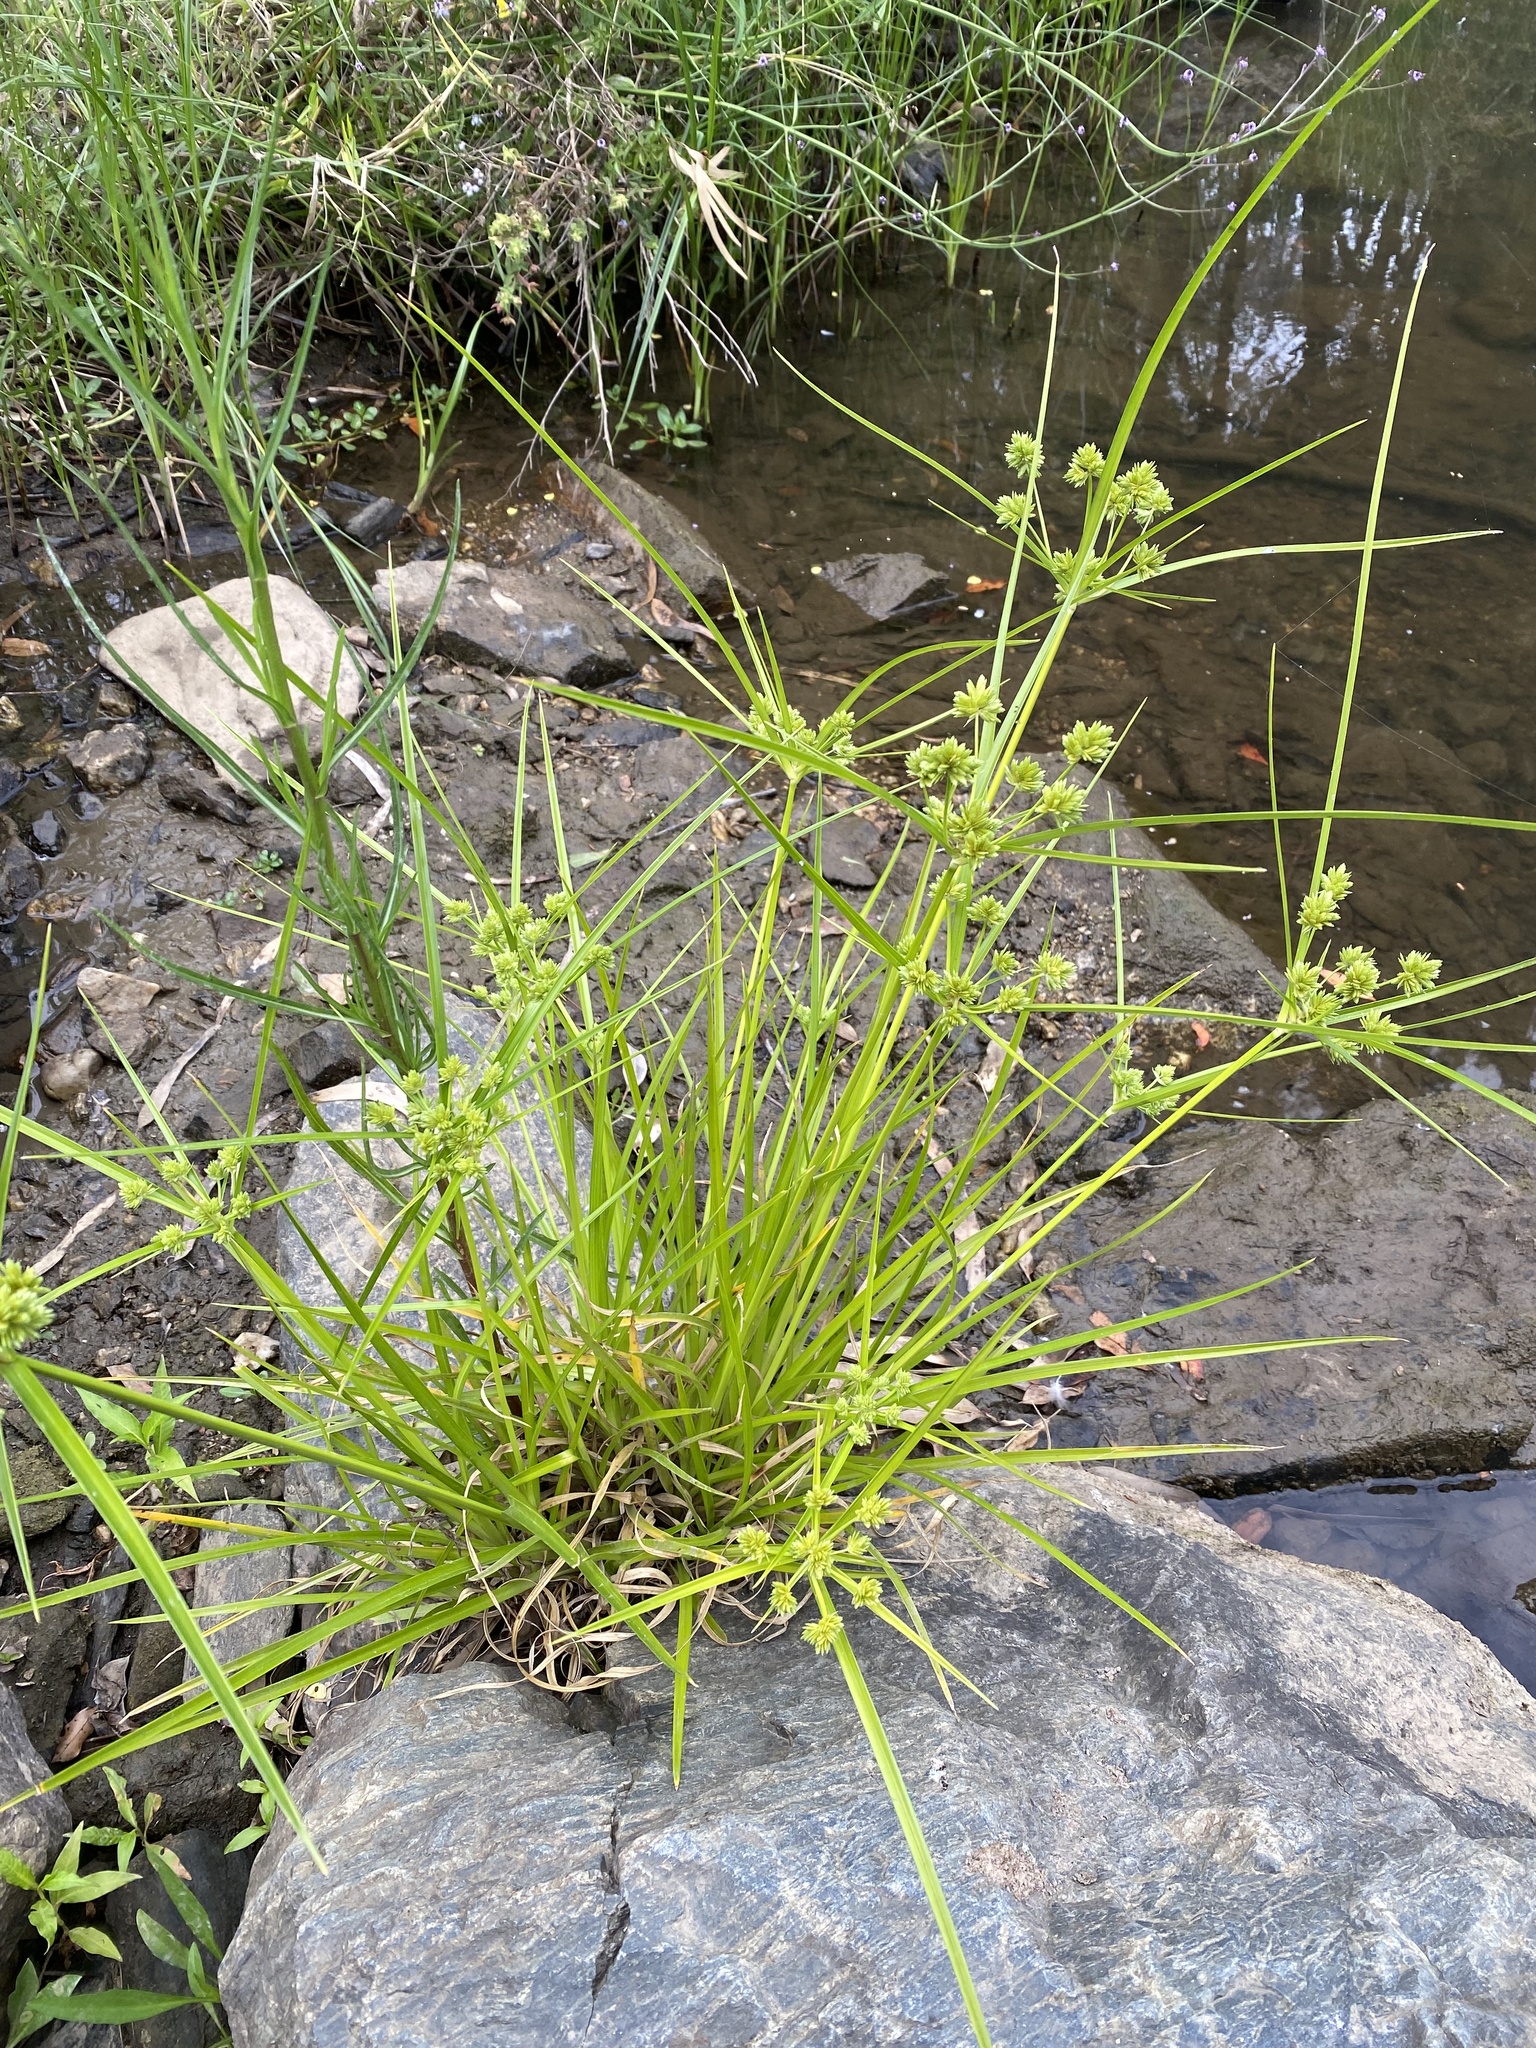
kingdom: Plantae
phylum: Tracheophyta
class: Liliopsida
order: Poales
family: Cyperaceae
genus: Cyperus
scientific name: Cyperus eragrostis
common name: Tall flatsedge
